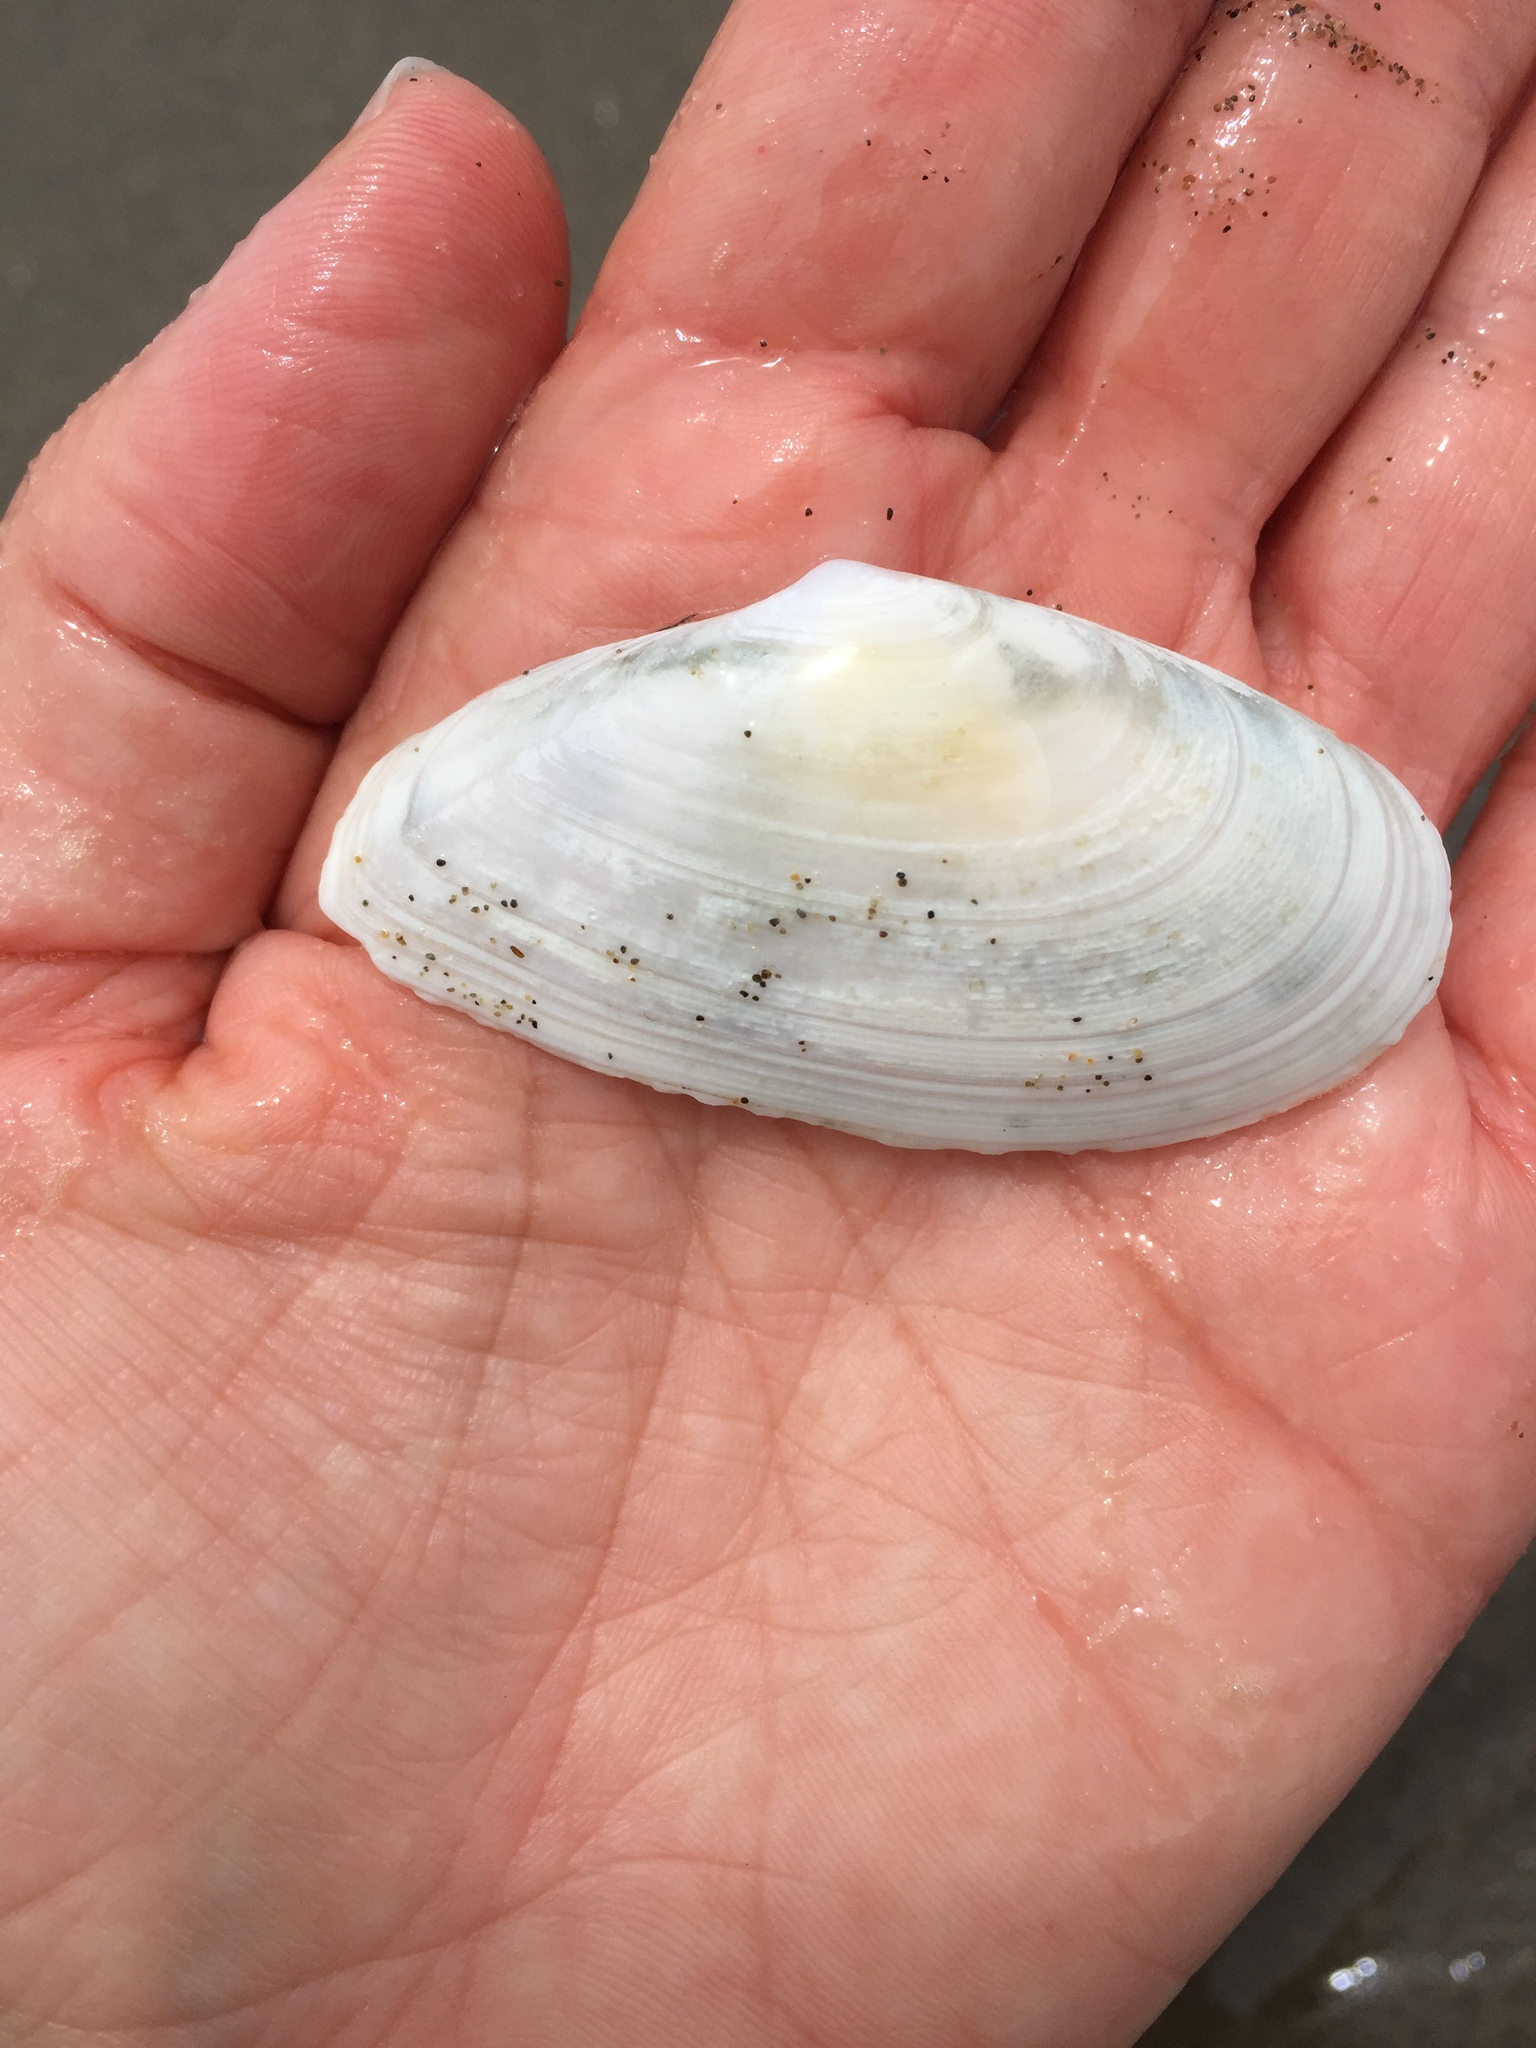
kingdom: Animalia
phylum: Mollusca
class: Bivalvia
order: Cardiida
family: Tellinidae
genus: Megangulus
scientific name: Megangulus bodegensis
